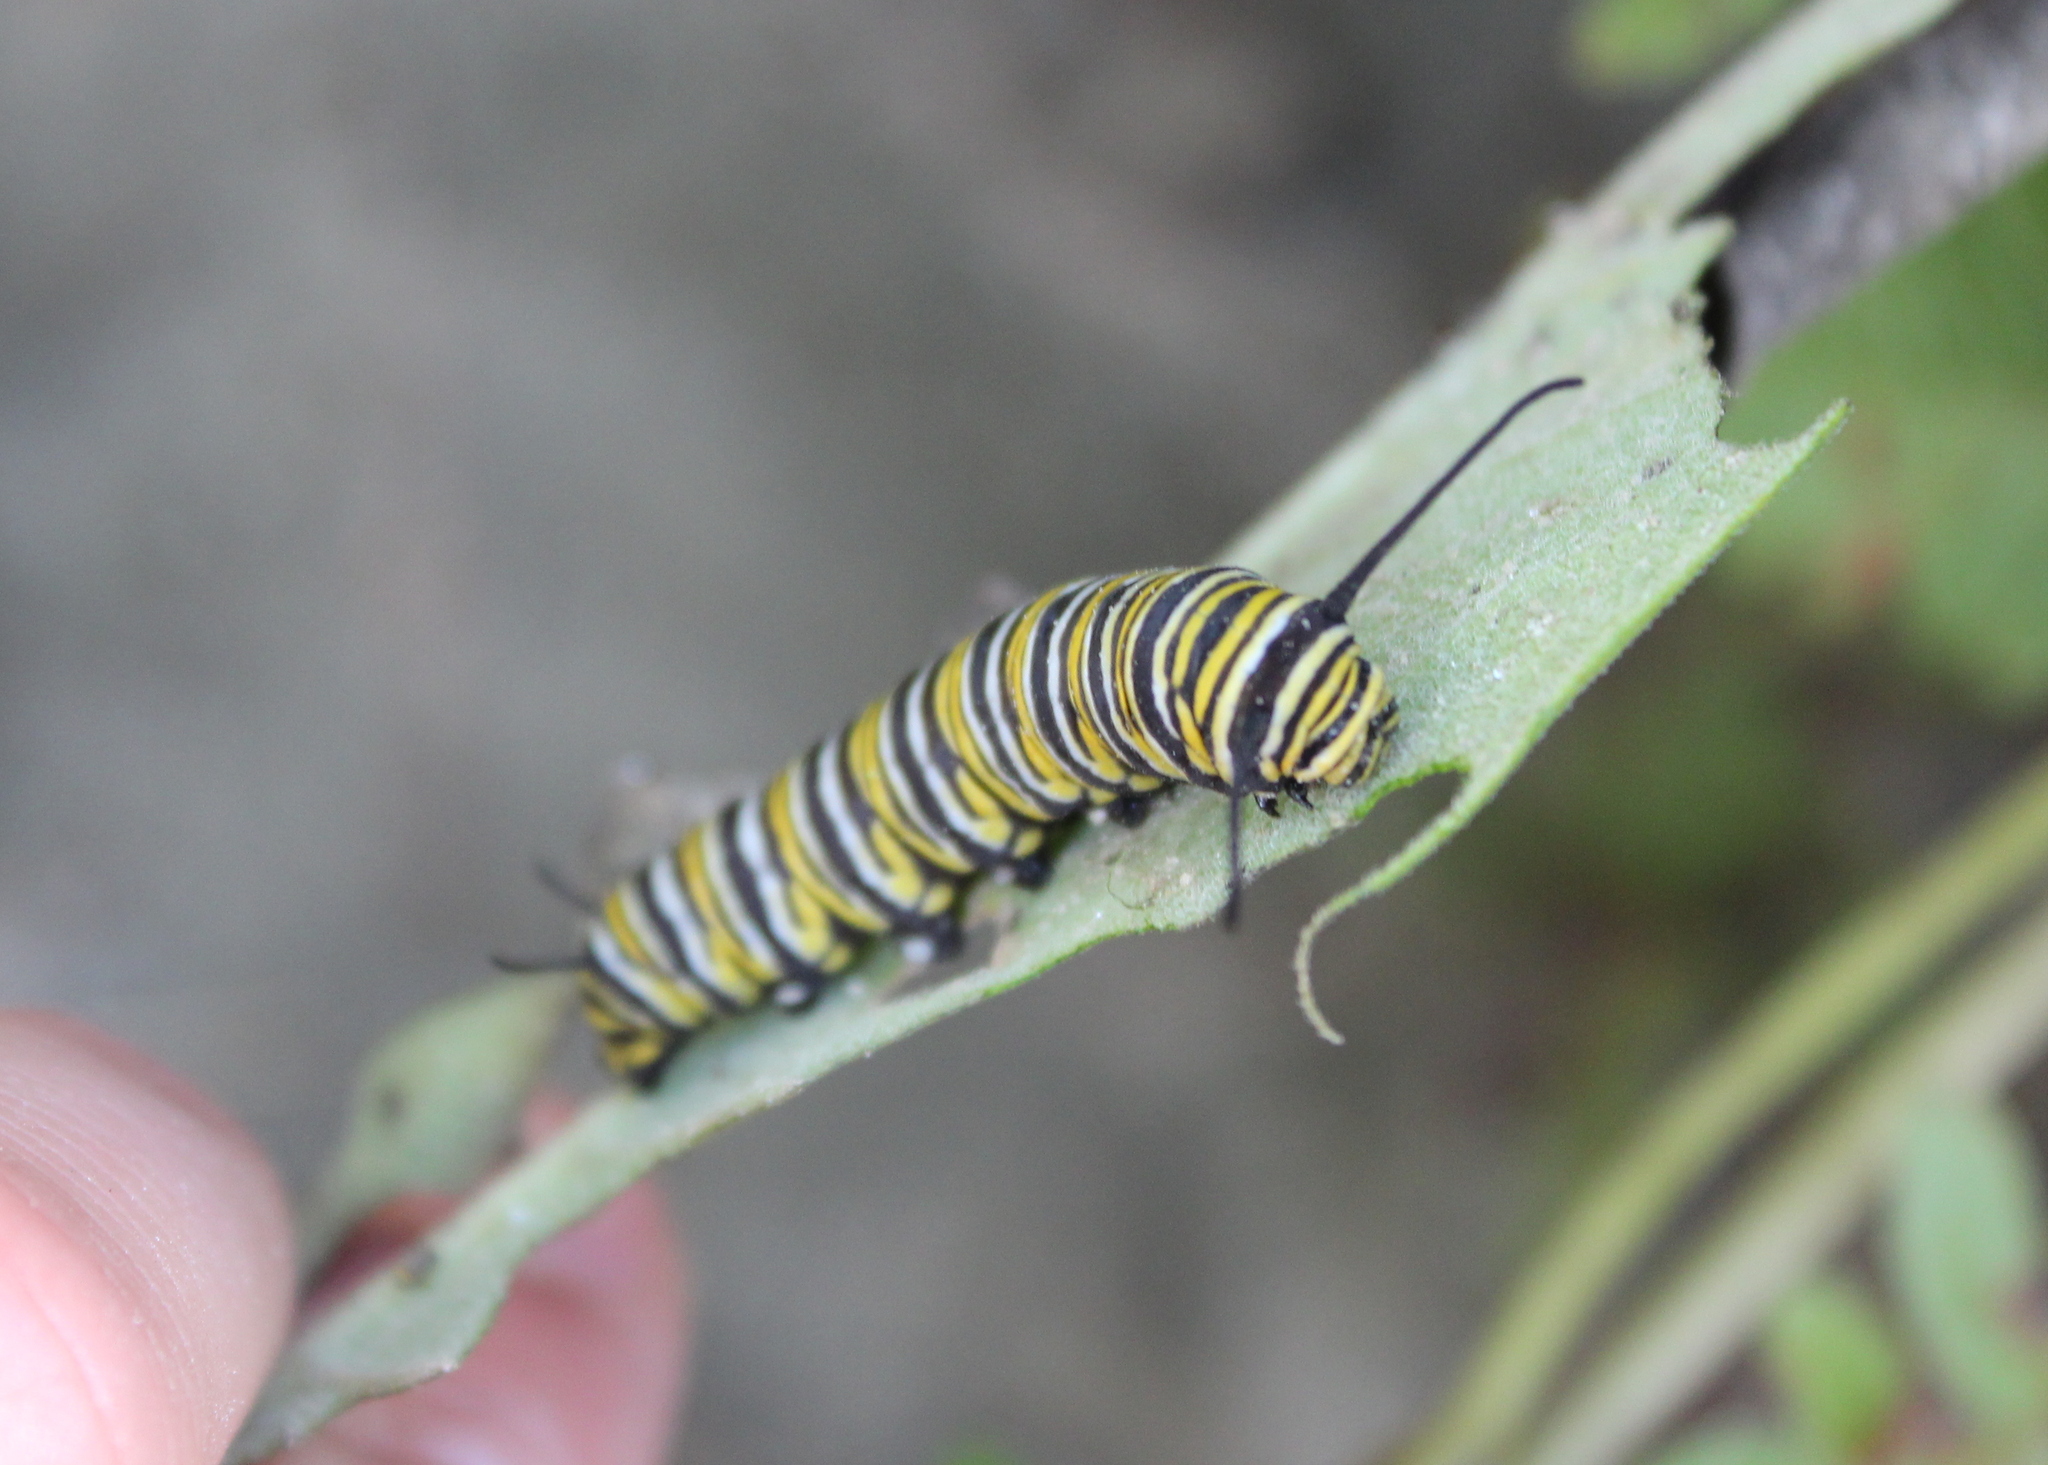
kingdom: Animalia
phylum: Arthropoda
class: Insecta
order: Lepidoptera
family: Nymphalidae
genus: Danaus
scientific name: Danaus plexippus
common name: Monarch
